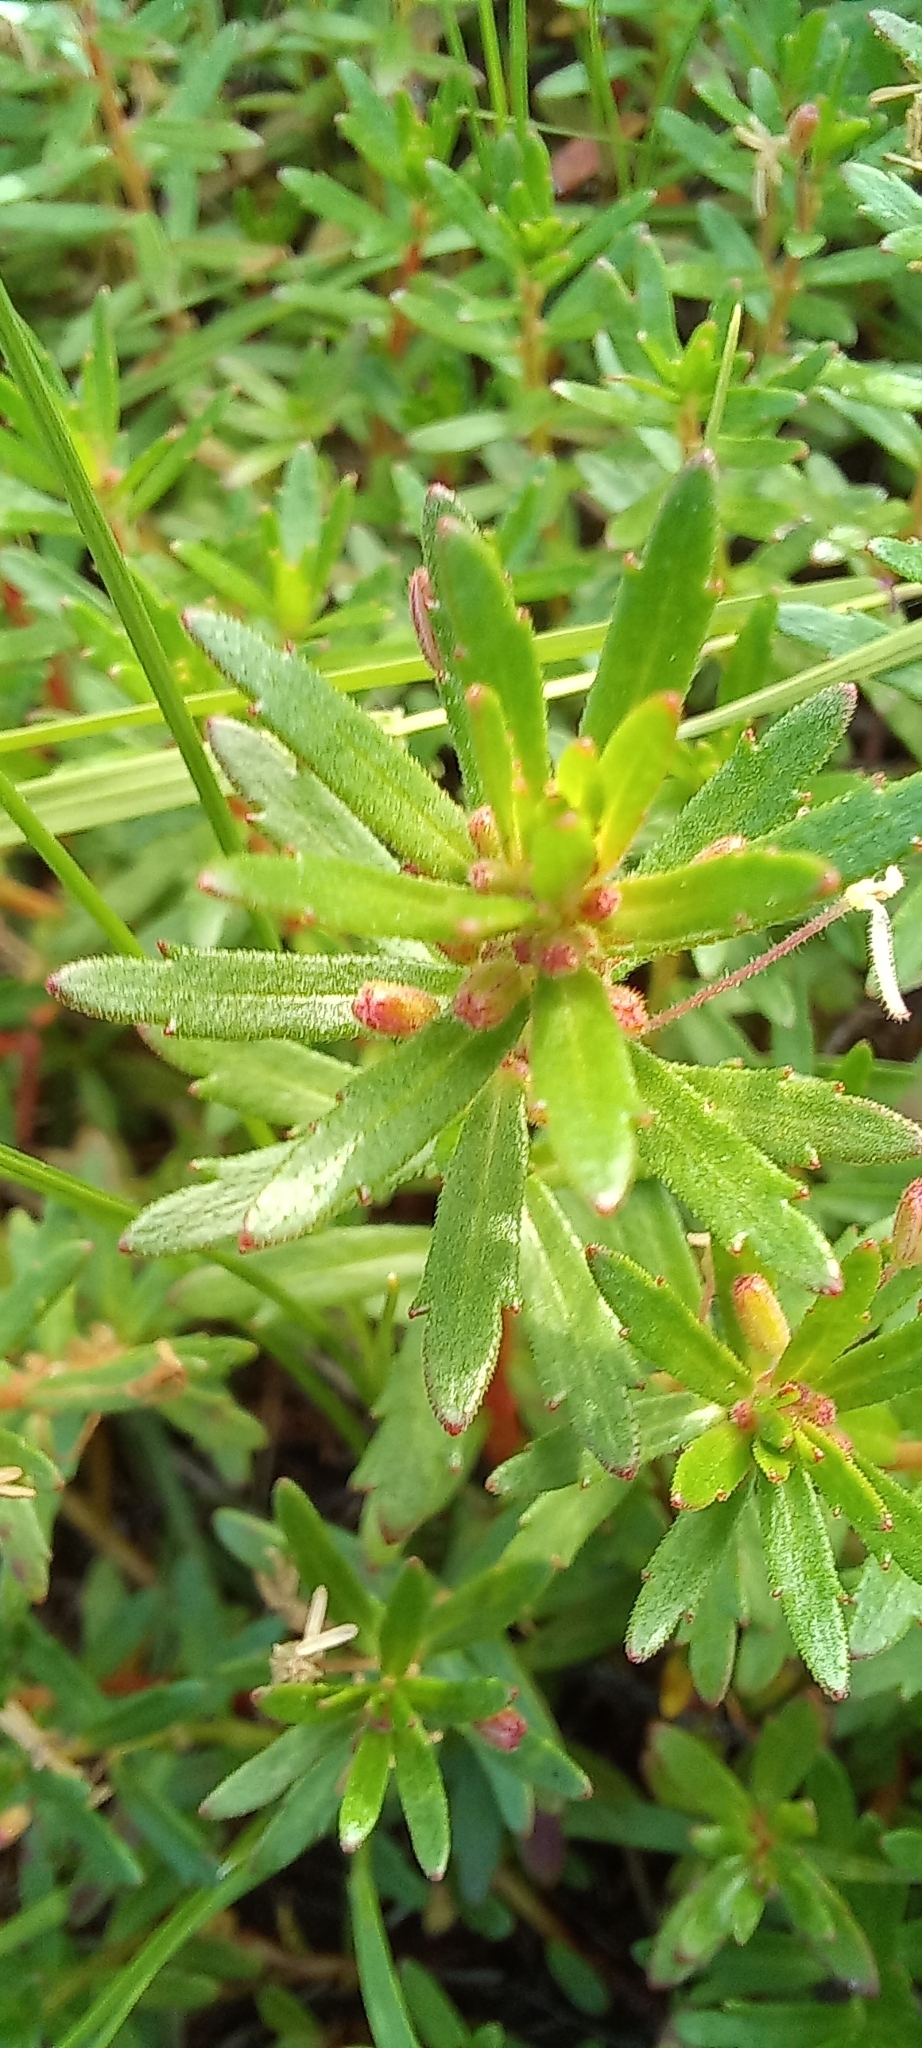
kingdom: Plantae
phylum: Tracheophyta
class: Magnoliopsida
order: Saxifragales
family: Haloragaceae
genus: Laurembergia
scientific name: Laurembergia repens
